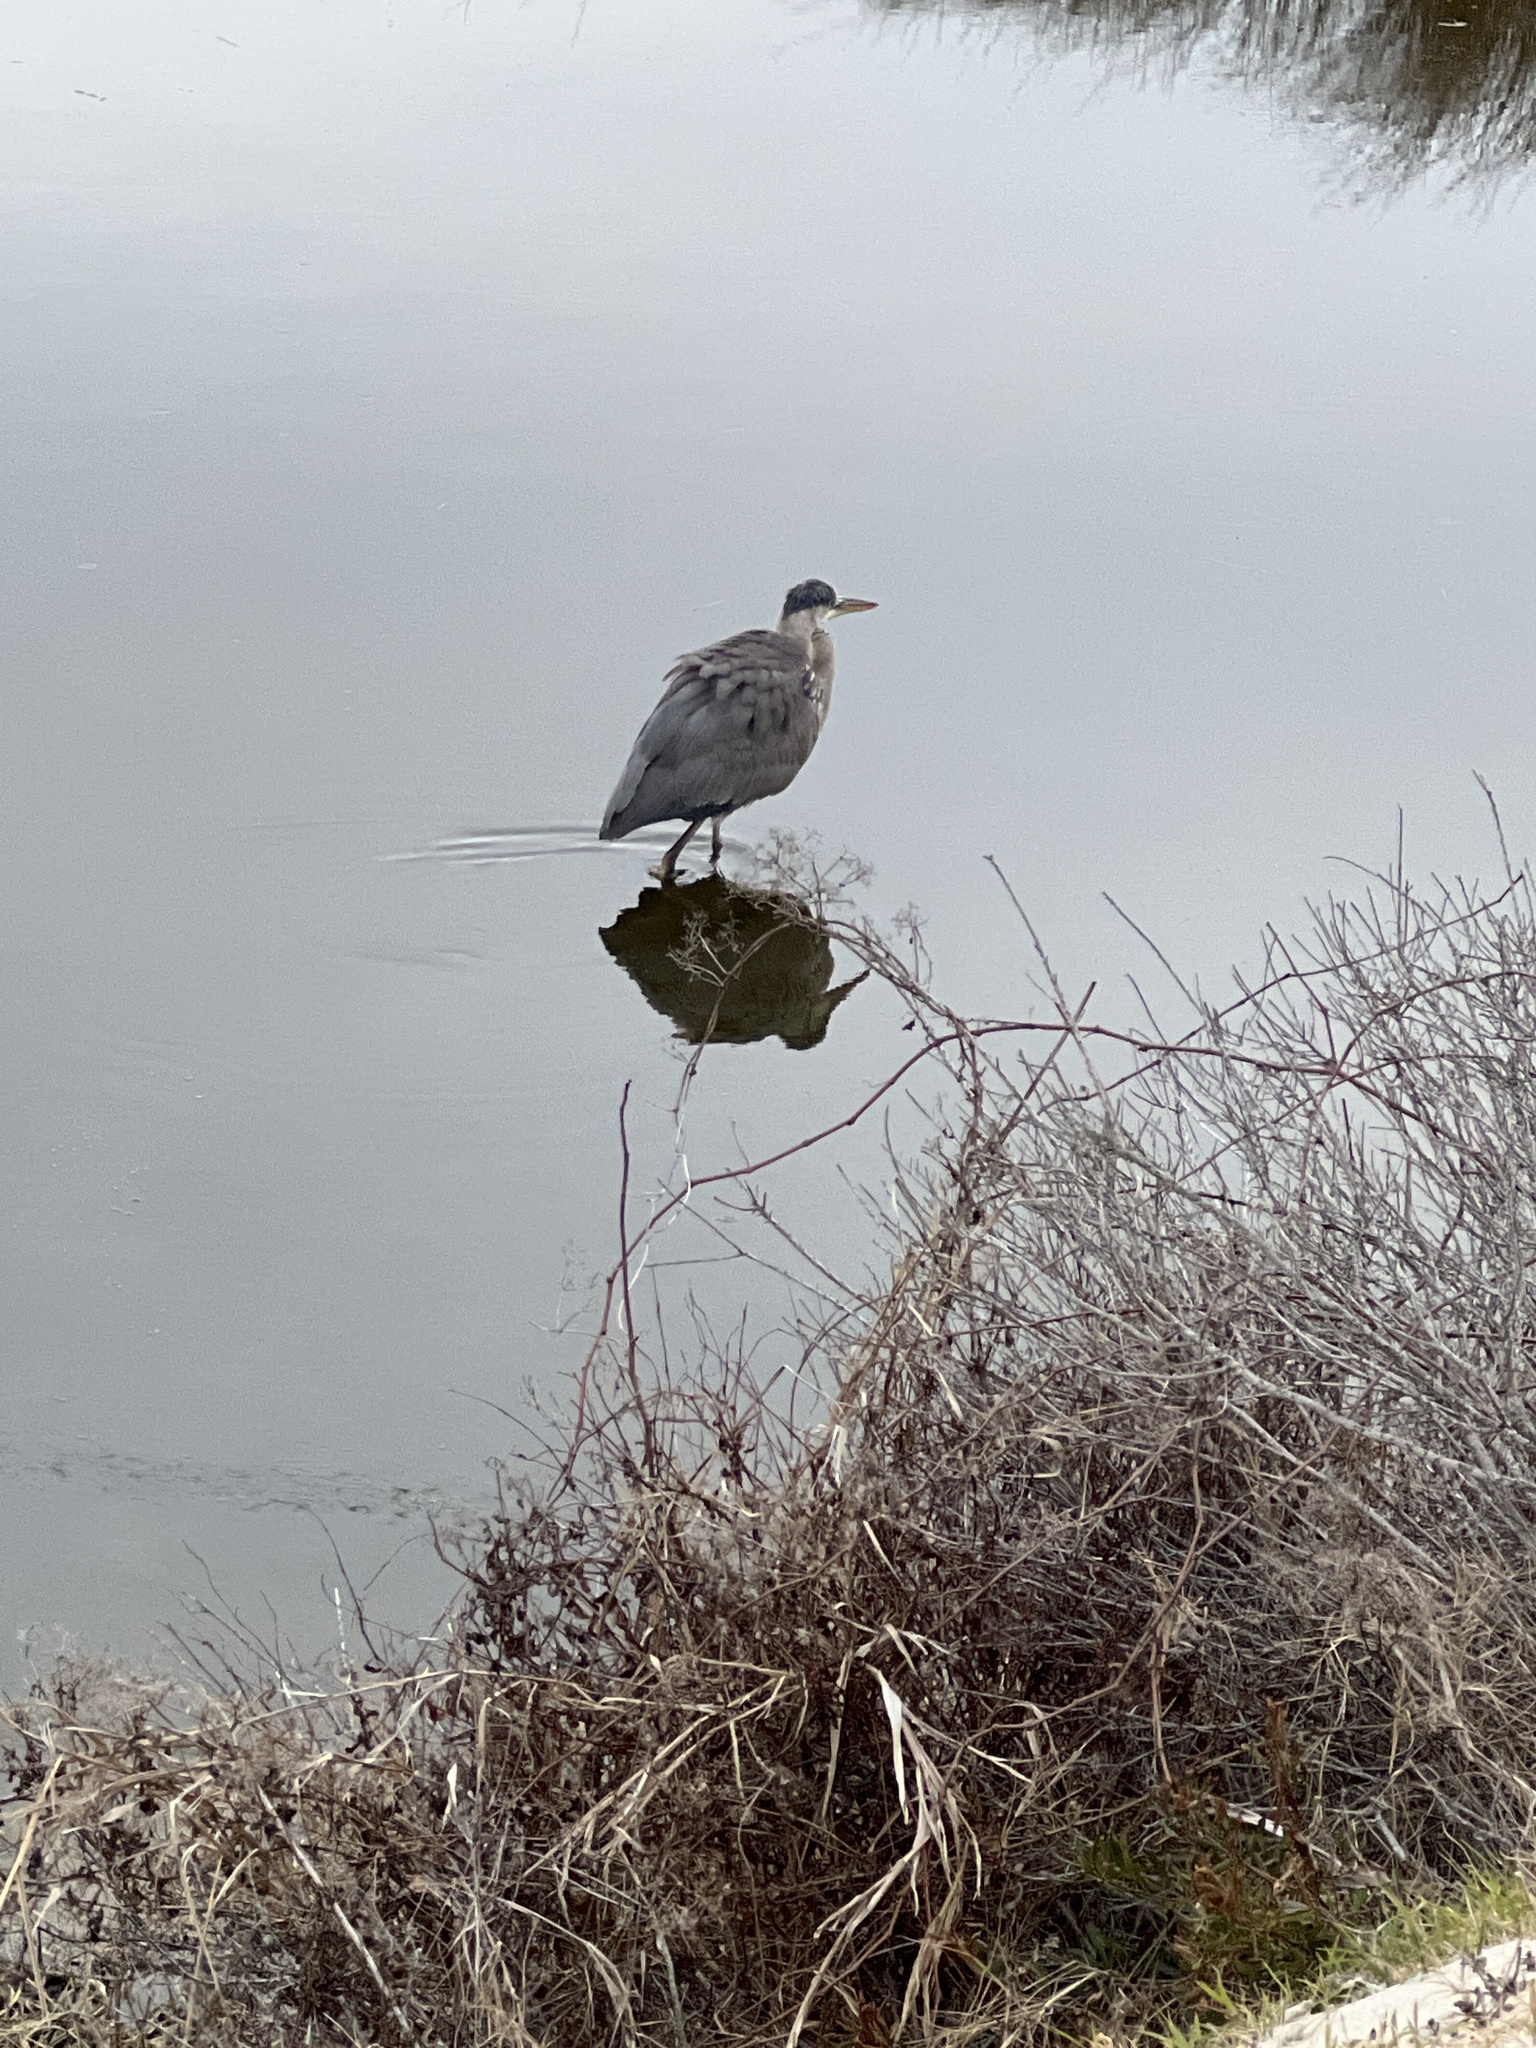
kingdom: Animalia
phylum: Chordata
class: Aves
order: Pelecaniformes
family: Ardeidae
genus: Ardea
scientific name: Ardea herodias
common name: Great blue heron
